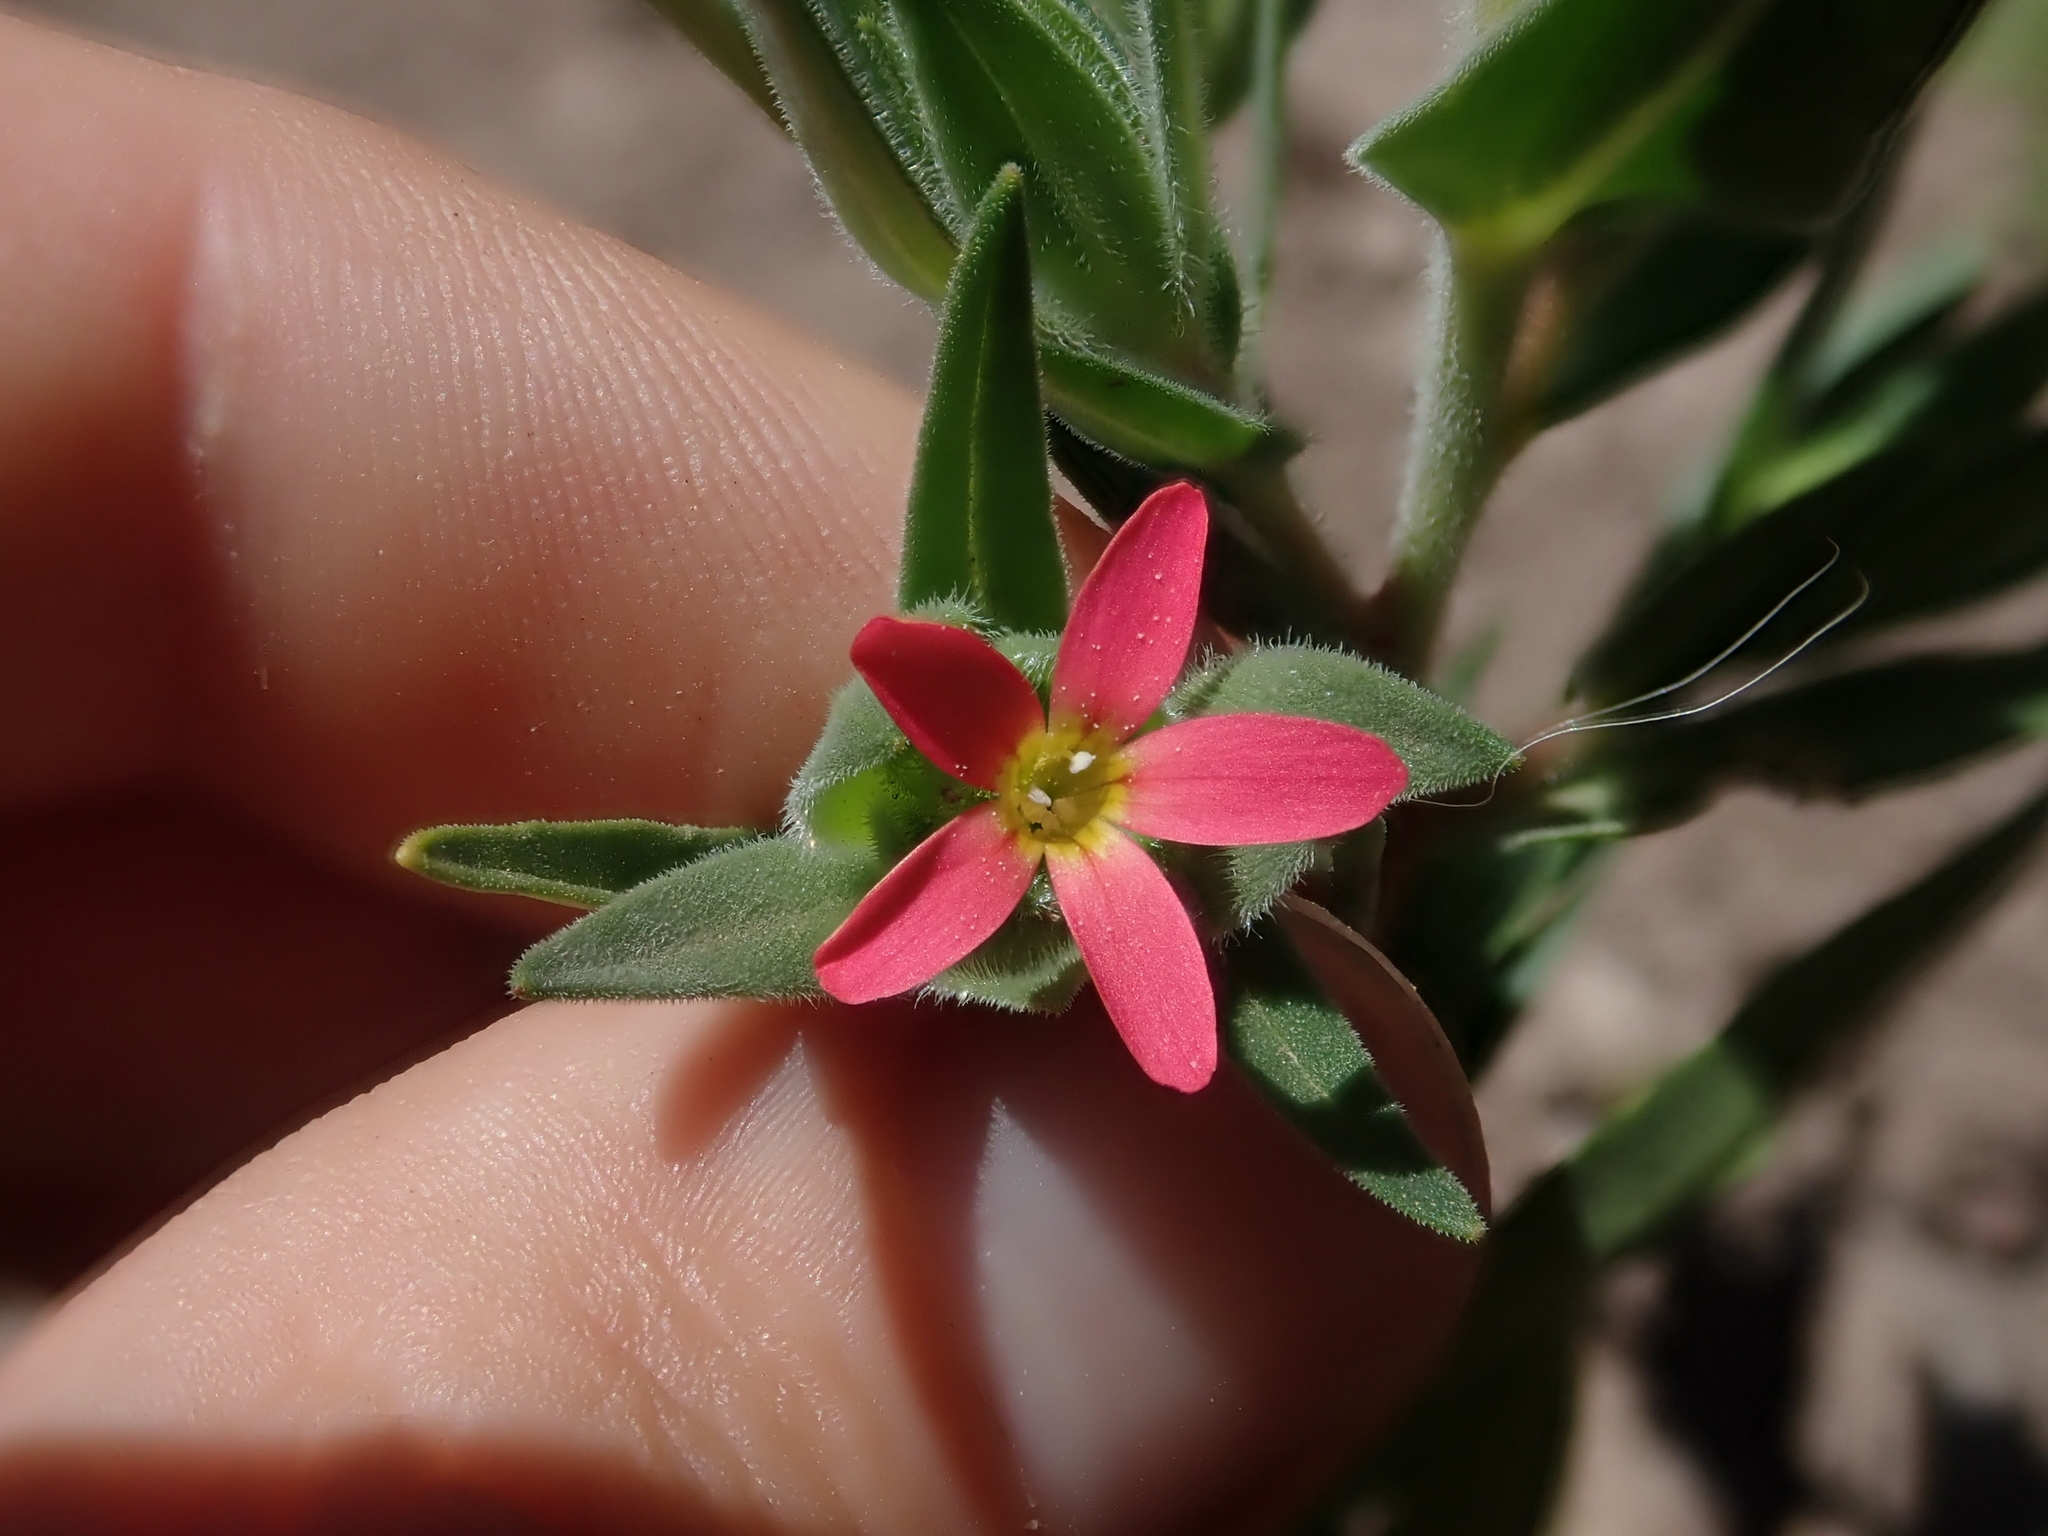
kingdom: Plantae
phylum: Tracheophyta
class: Magnoliopsida
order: Ericales
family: Polemoniaceae
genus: Collomia
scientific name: Collomia biflora
